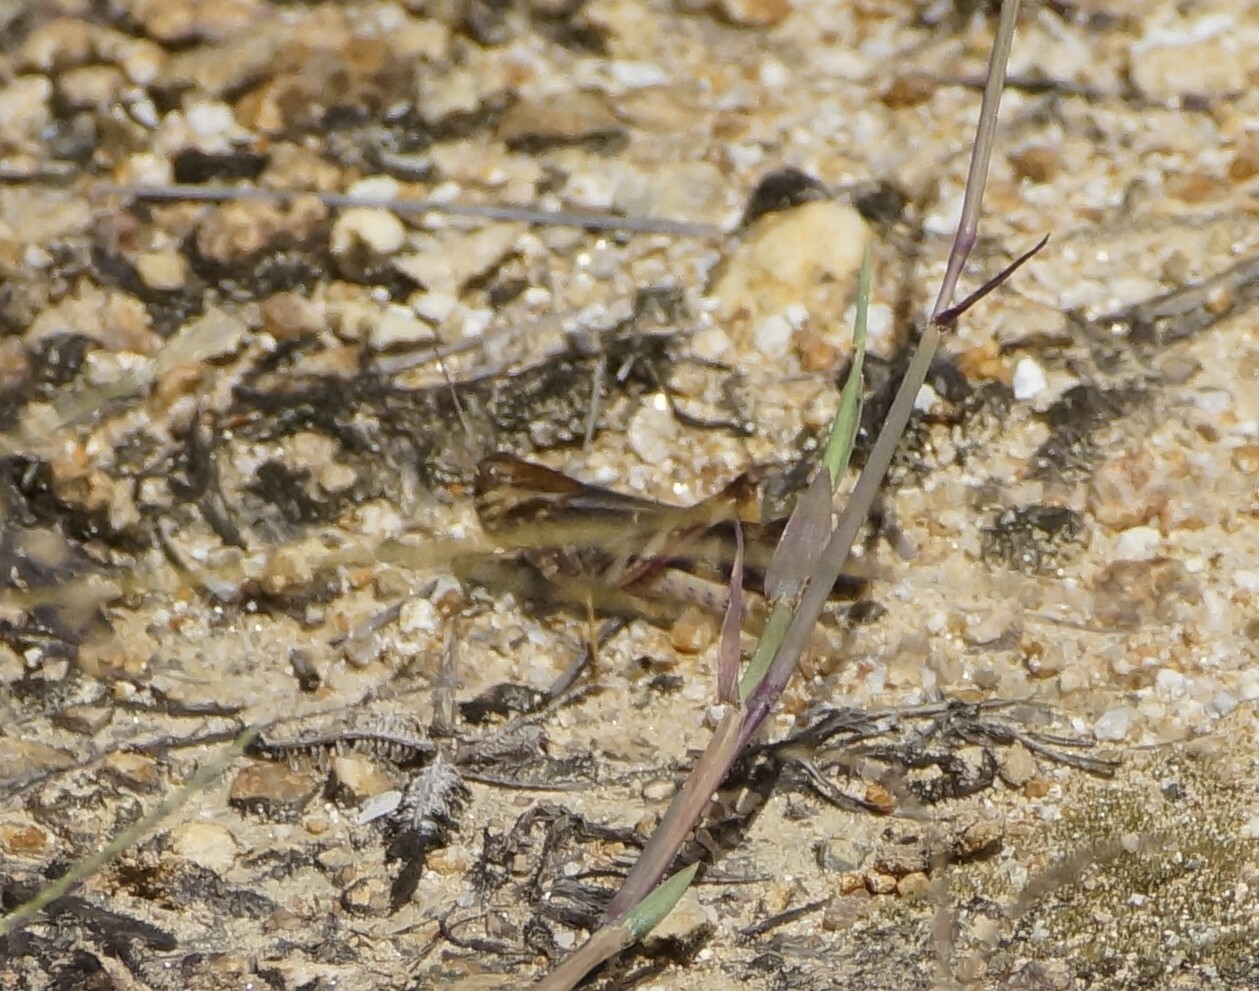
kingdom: Animalia
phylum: Arthropoda
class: Insecta
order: Orthoptera
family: Acrididae
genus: Gastrimargus
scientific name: Gastrimargus musicus
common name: Yellow-winged locust
